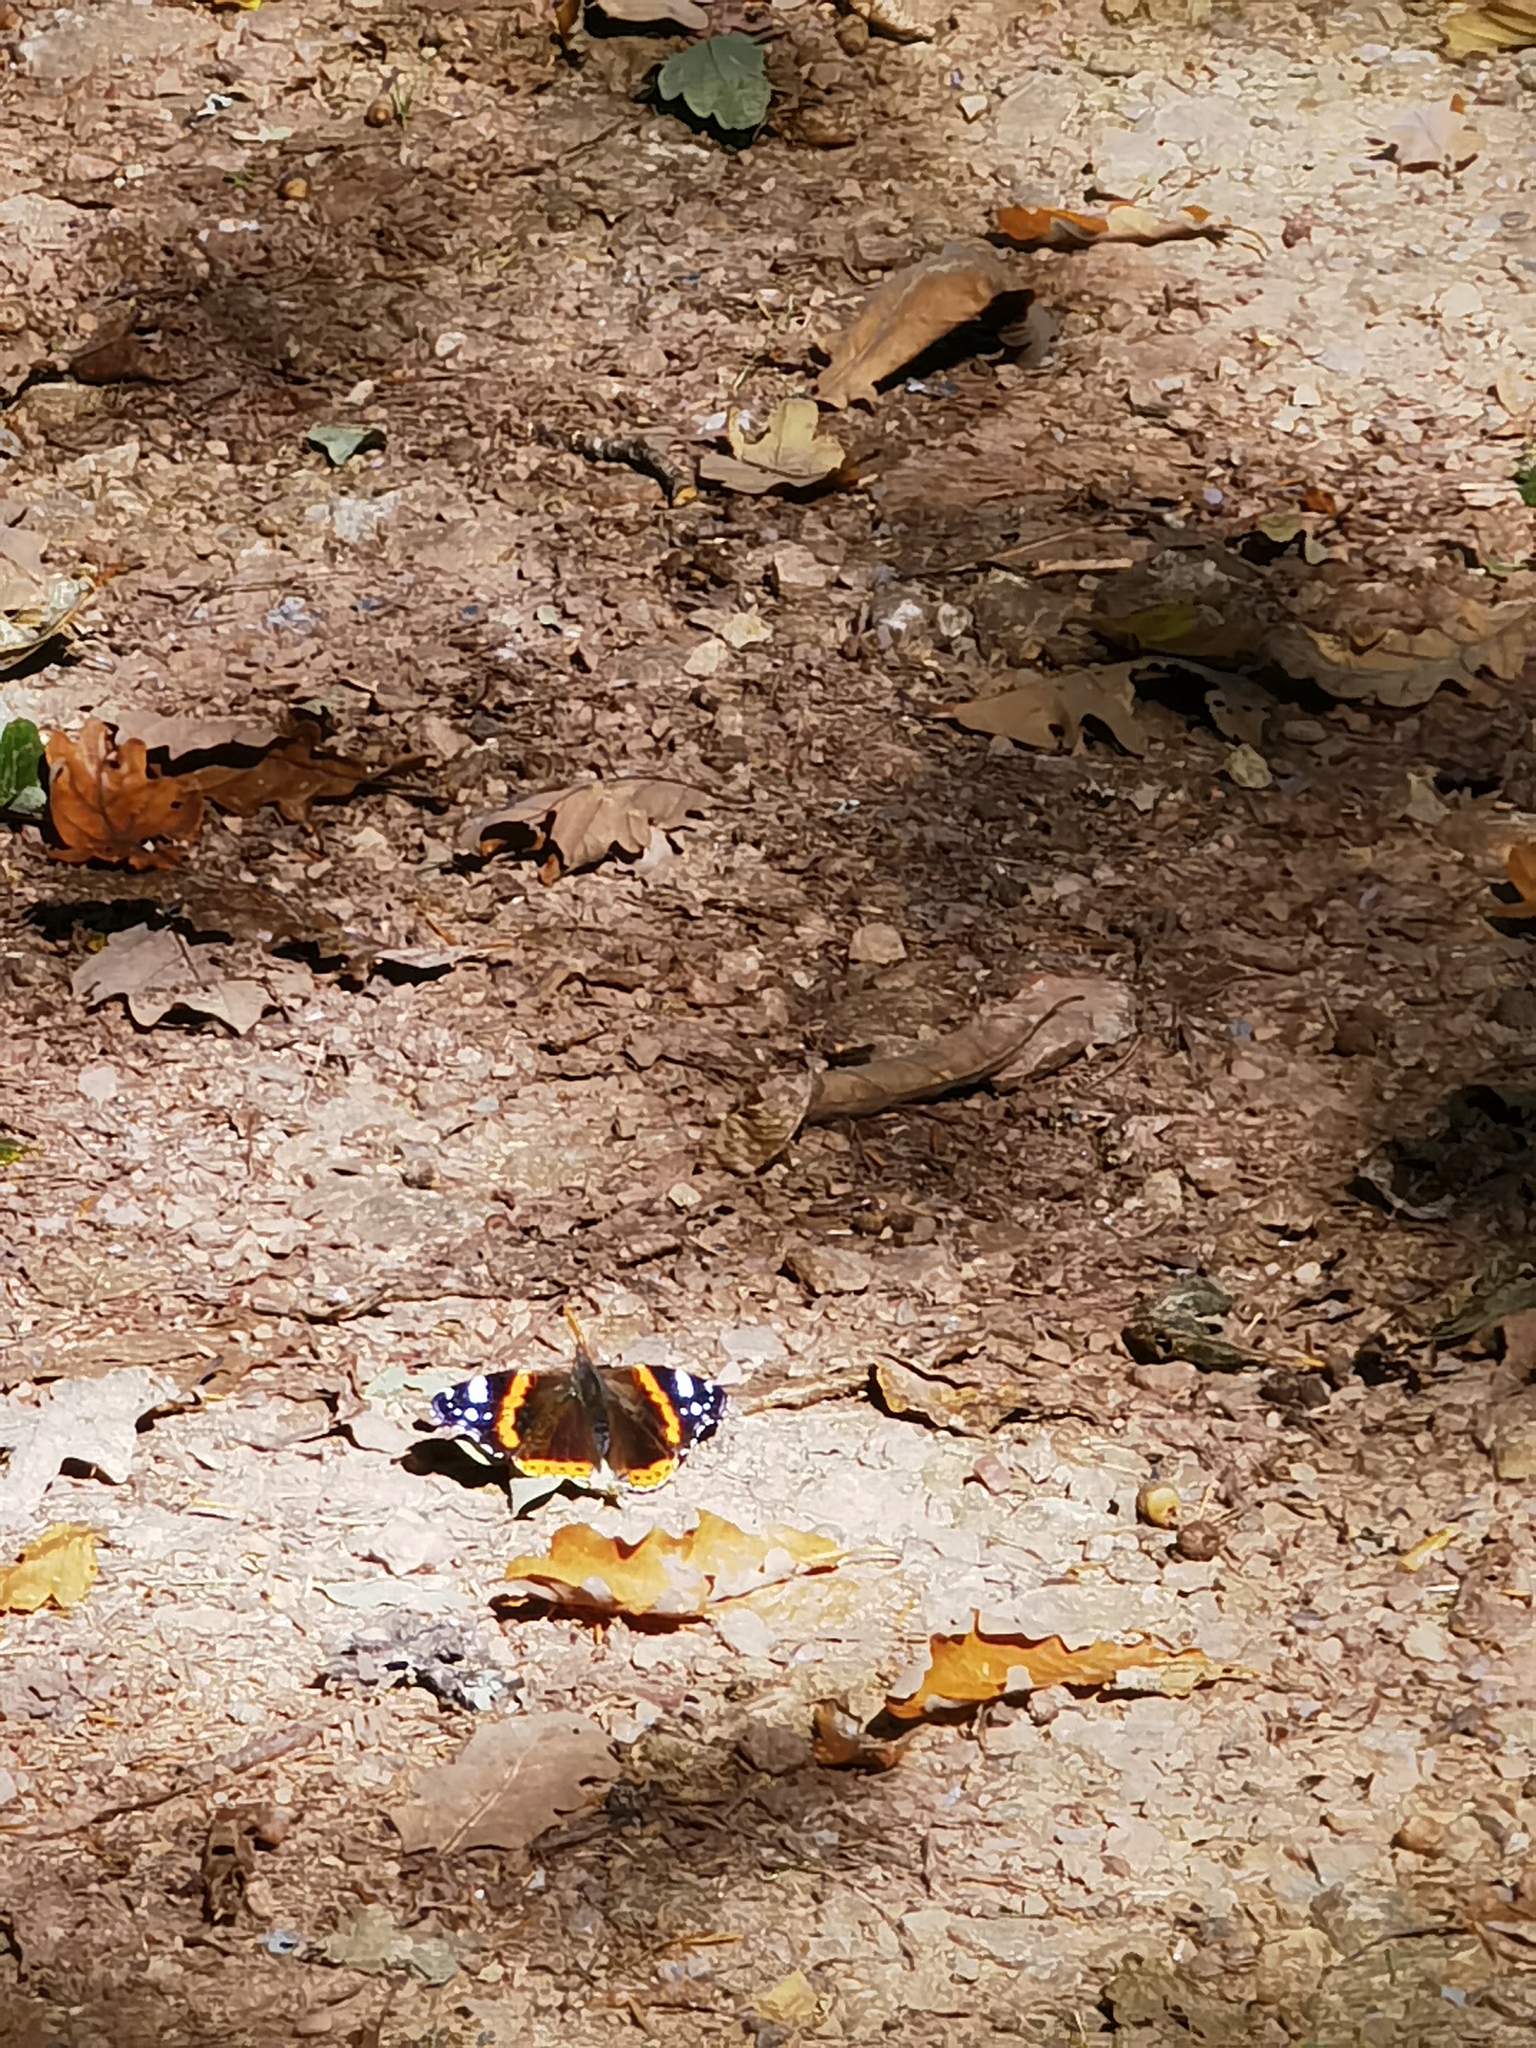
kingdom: Animalia
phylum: Arthropoda
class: Insecta
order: Lepidoptera
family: Nymphalidae
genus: Vanessa
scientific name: Vanessa atalanta
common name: Red admiral
